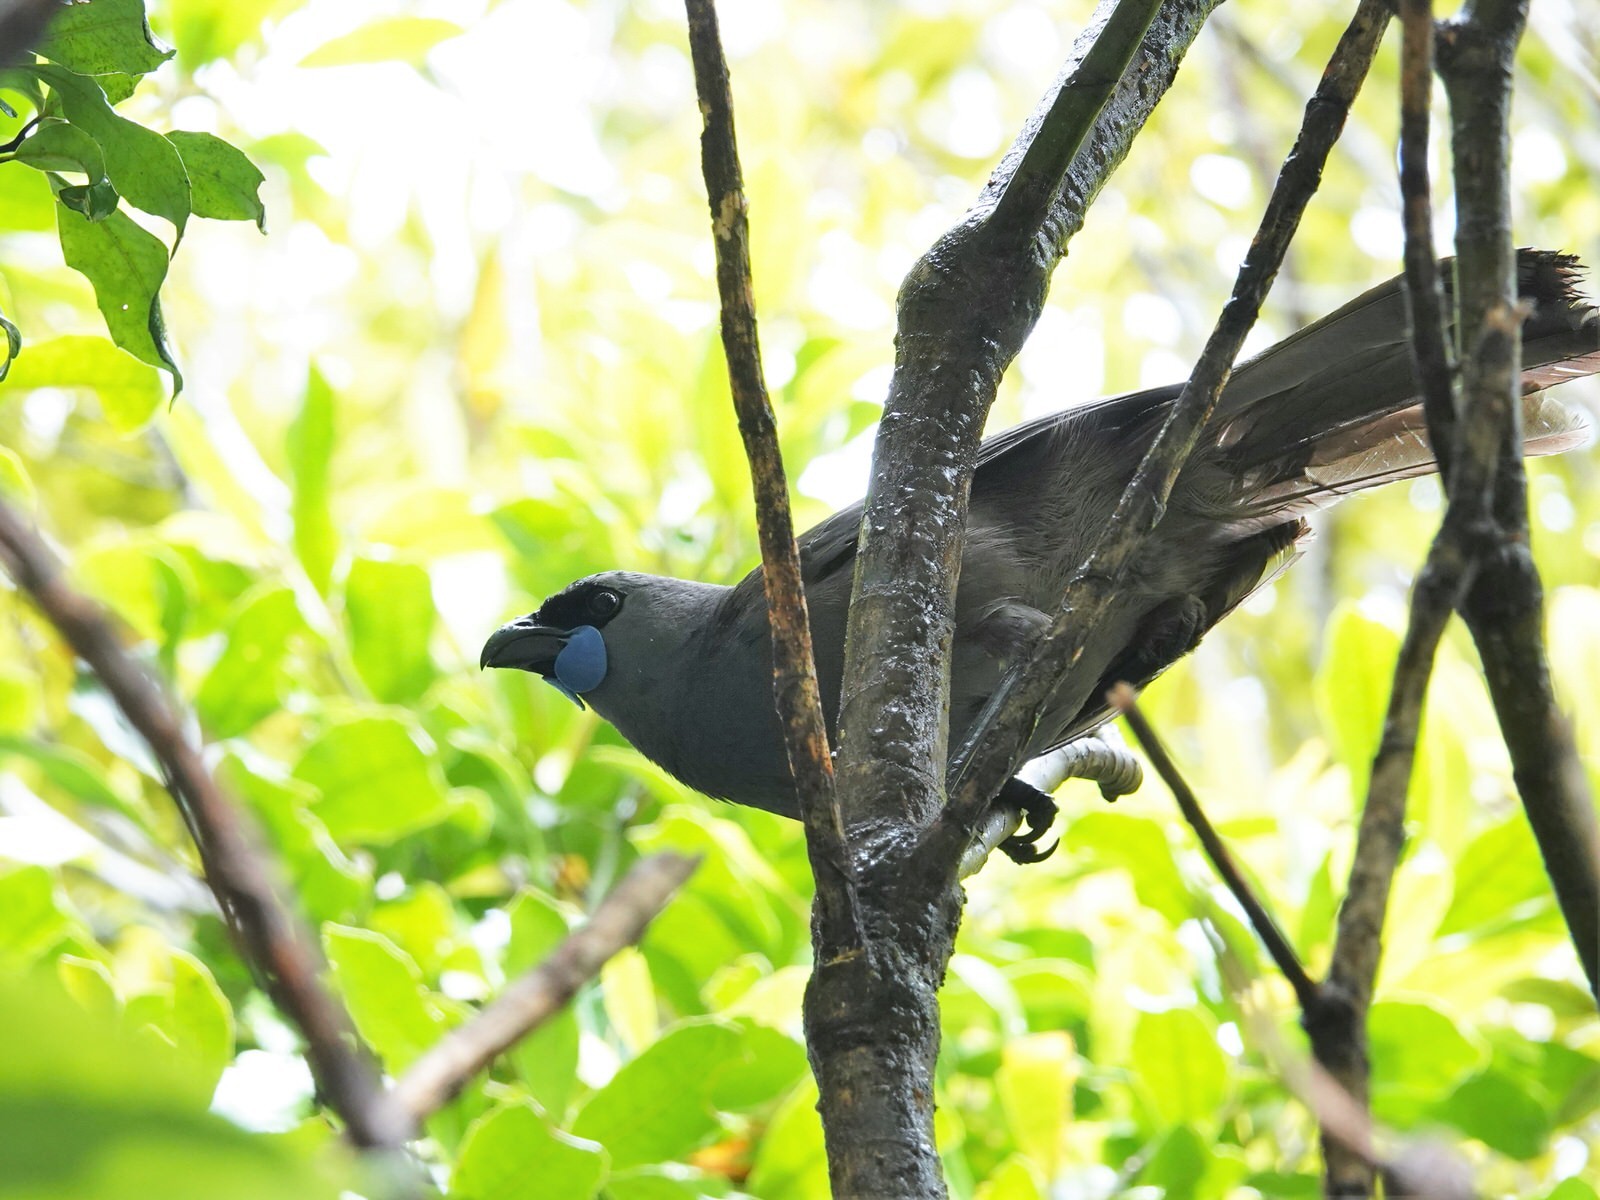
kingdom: Animalia
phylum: Chordata
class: Aves
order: Passeriformes
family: Callaeatidae
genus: Callaeas
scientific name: Callaeas cinereus
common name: South island kokako
